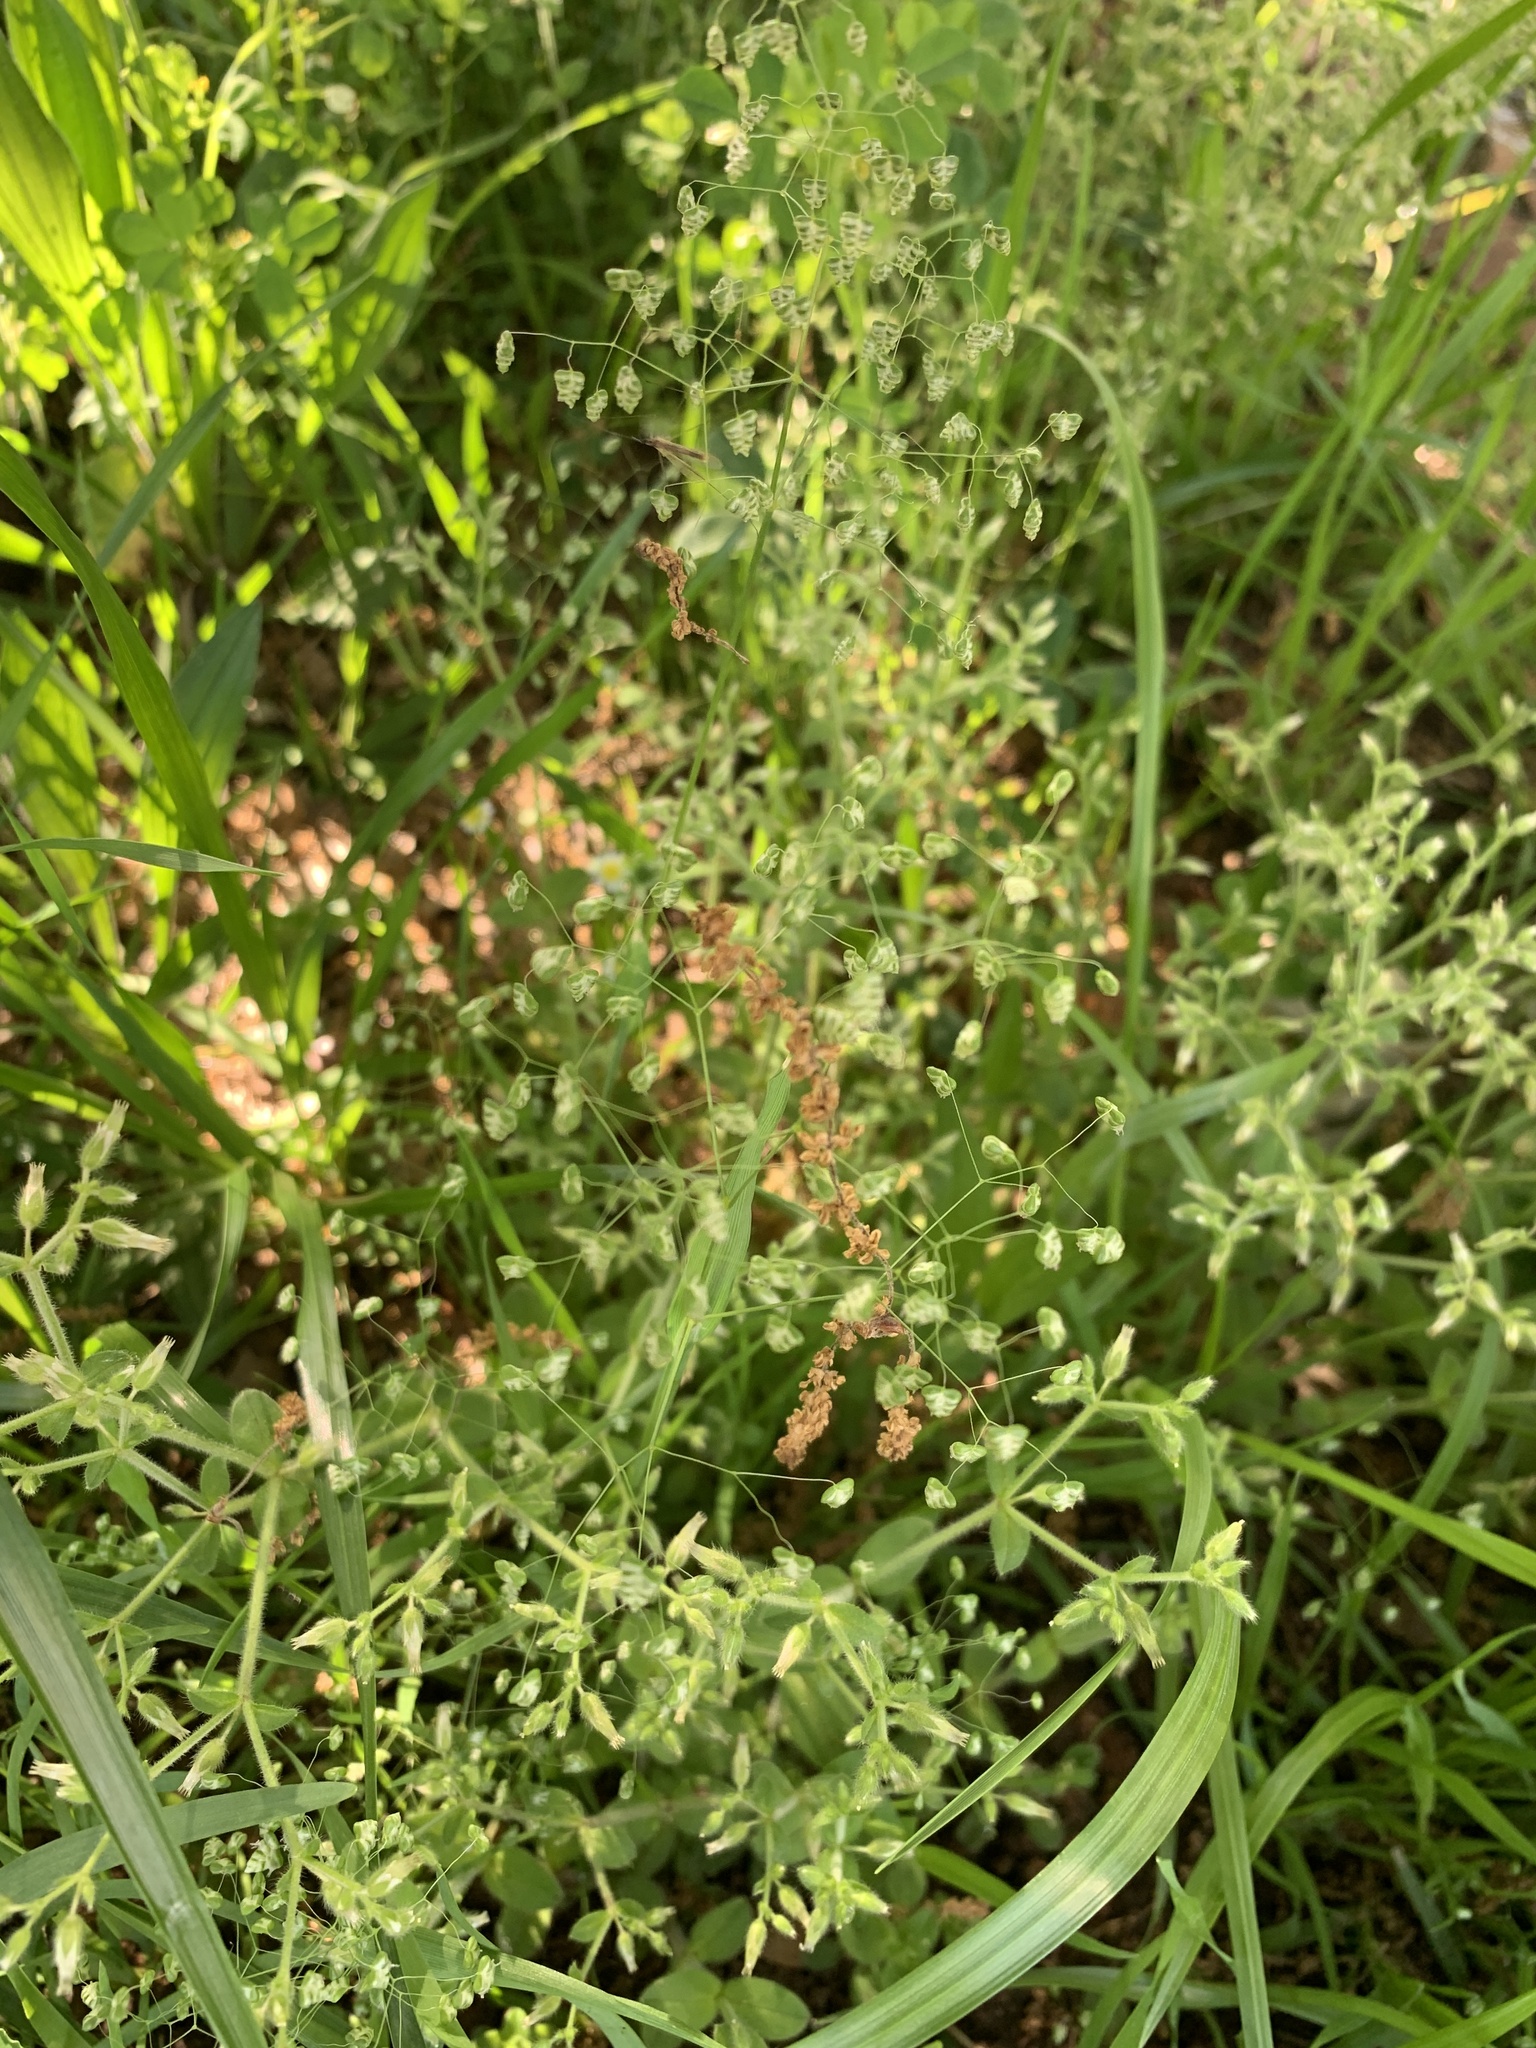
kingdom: Plantae
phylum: Tracheophyta
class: Liliopsida
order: Poales
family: Poaceae
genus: Briza
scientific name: Briza minor
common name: Lesser quaking-grass
